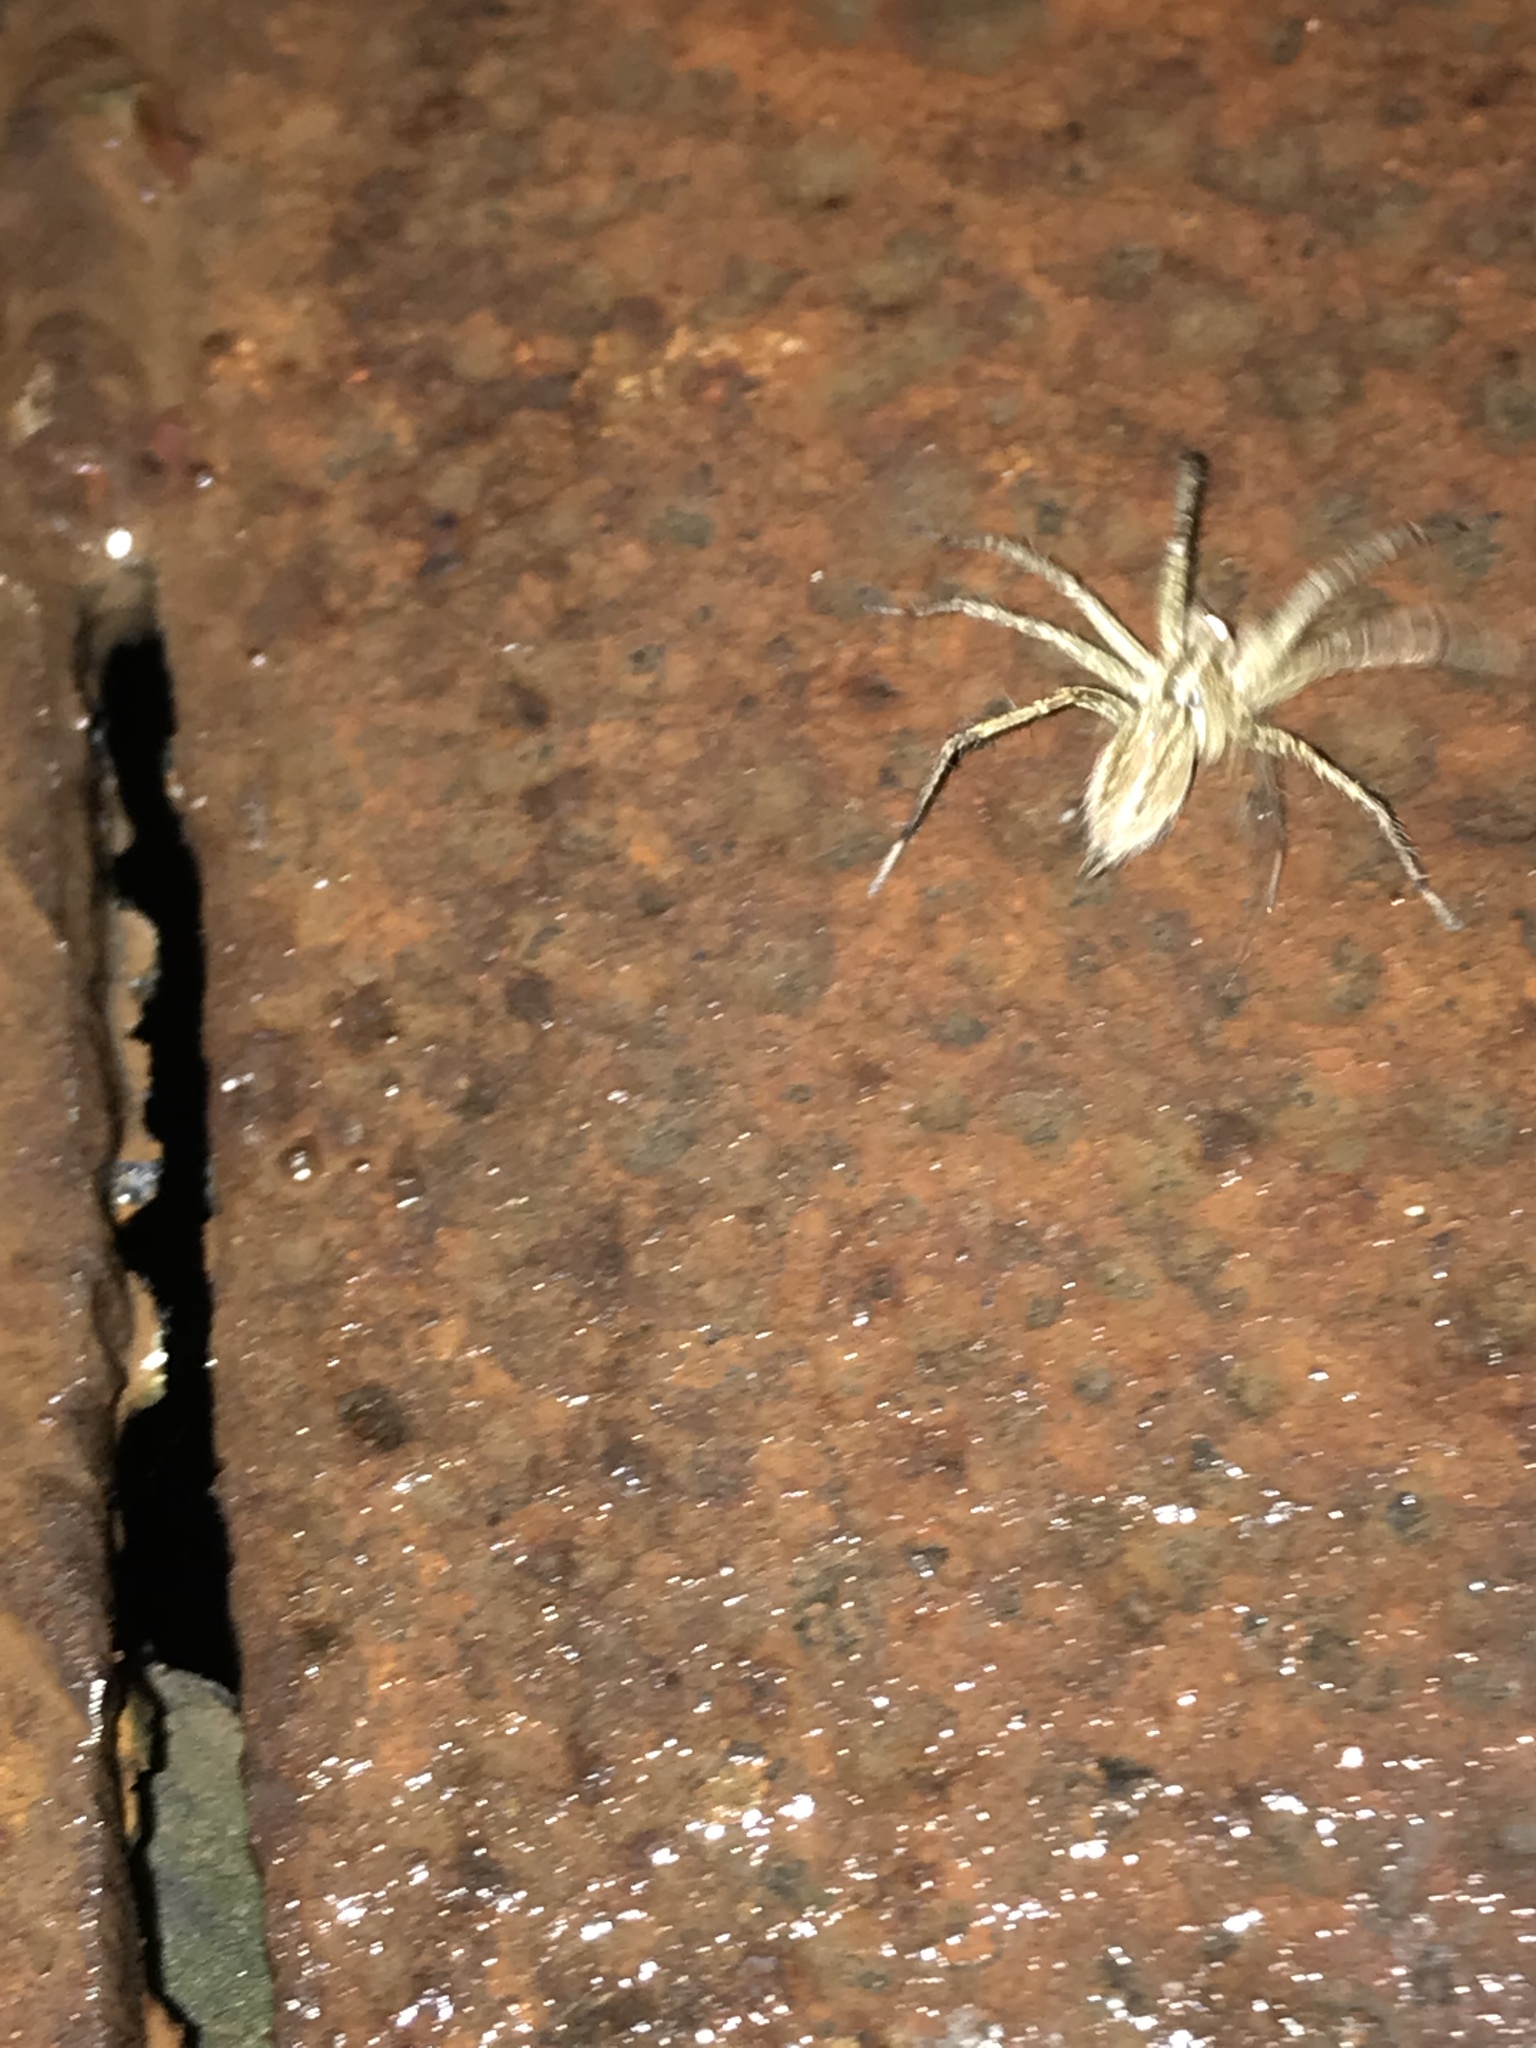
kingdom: Animalia
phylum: Arthropoda
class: Arachnida
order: Araneae
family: Agelenidae
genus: Agelenopsis
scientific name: Agelenopsis
